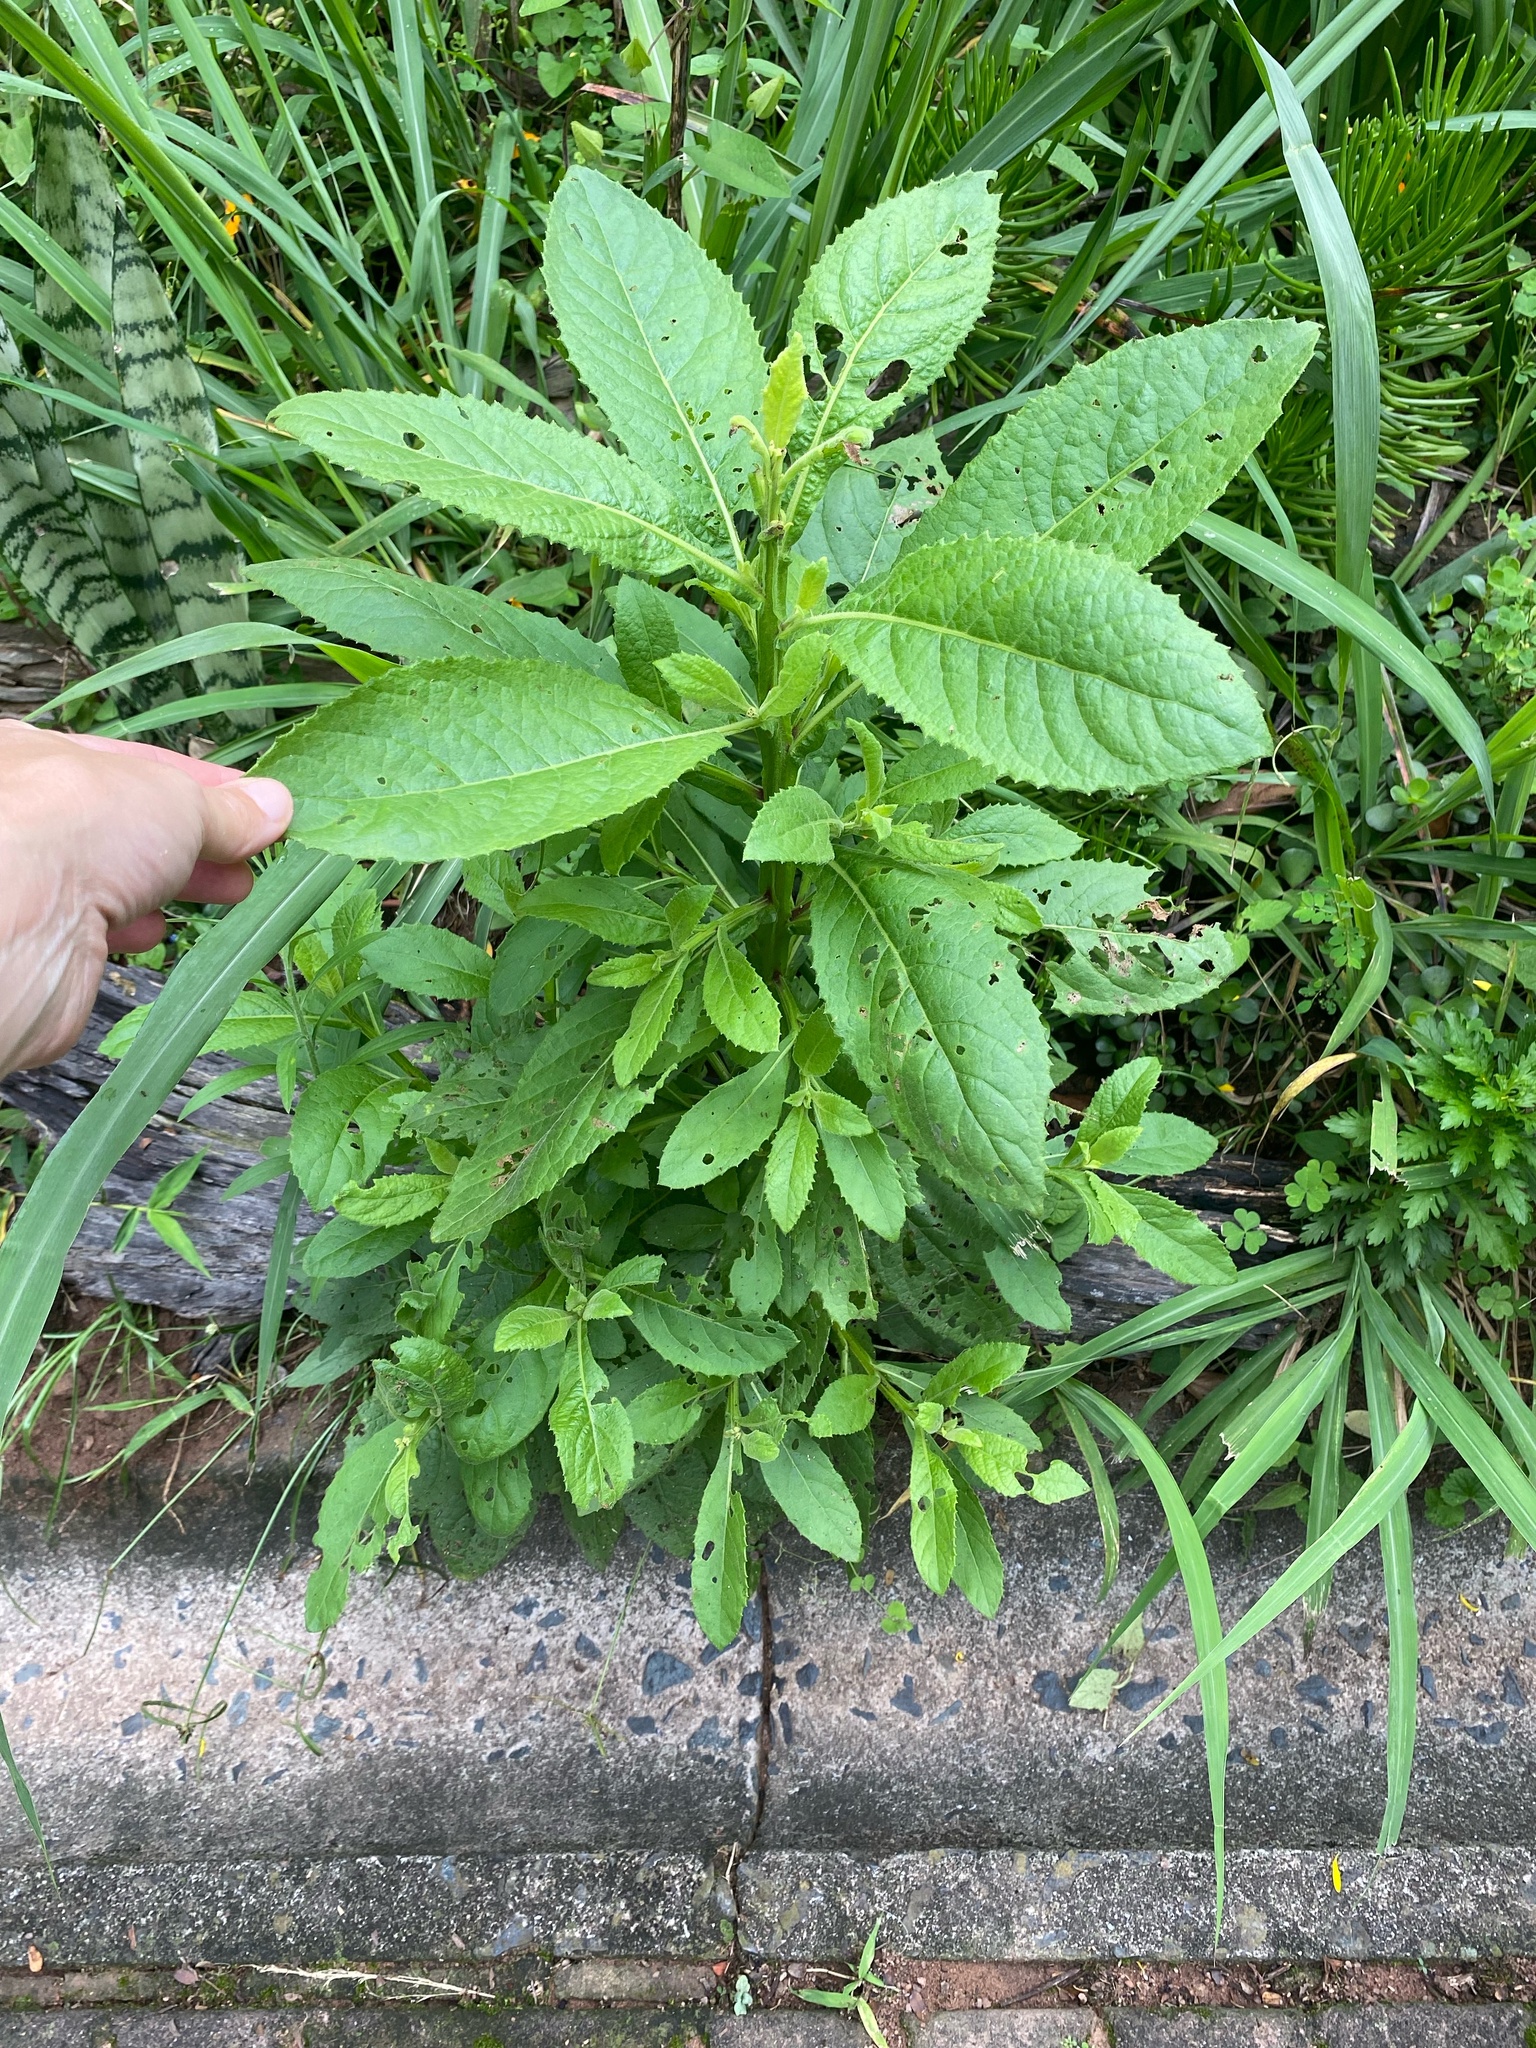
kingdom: Plantae
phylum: Tracheophyta
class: Magnoliopsida
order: Asterales
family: Asteraceae
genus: Laggera
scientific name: Laggera crispata
